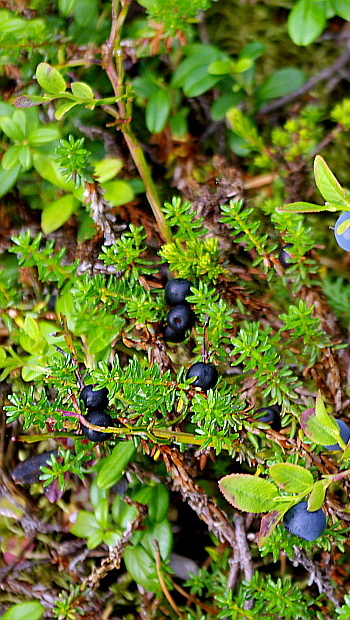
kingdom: Plantae
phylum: Tracheophyta
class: Magnoliopsida
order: Ericales
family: Ericaceae
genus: Empetrum
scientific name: Empetrum nigrum
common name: Black crowberry
